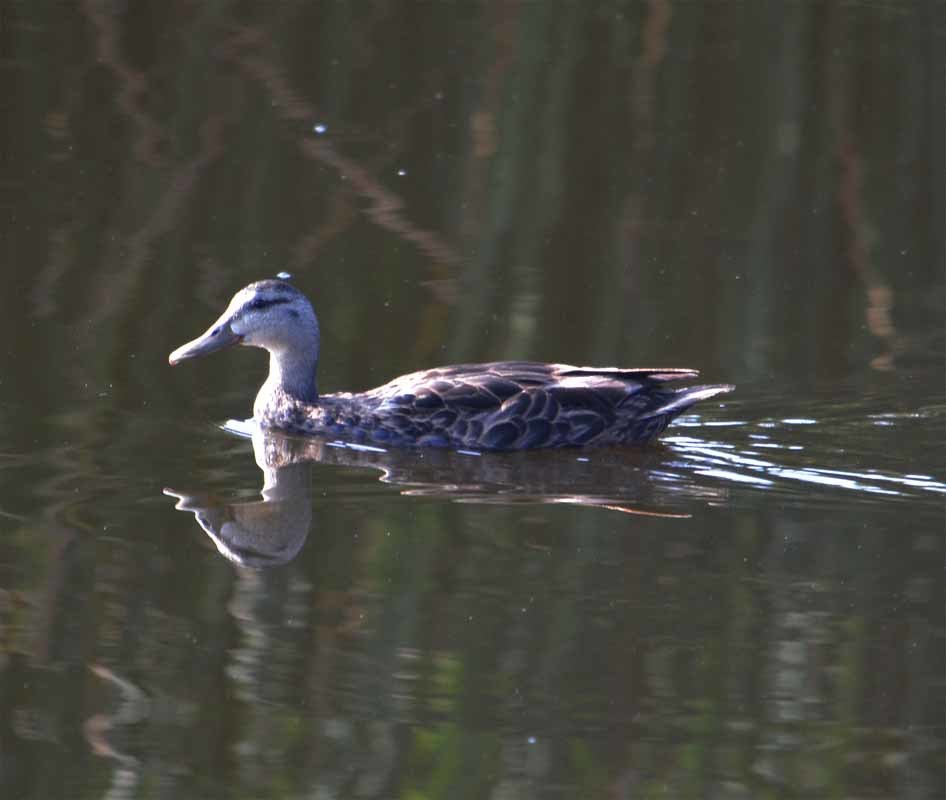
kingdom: Animalia
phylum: Chordata
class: Aves
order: Anseriformes
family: Anatidae
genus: Anas
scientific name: Anas diazi
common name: Mexican duck
